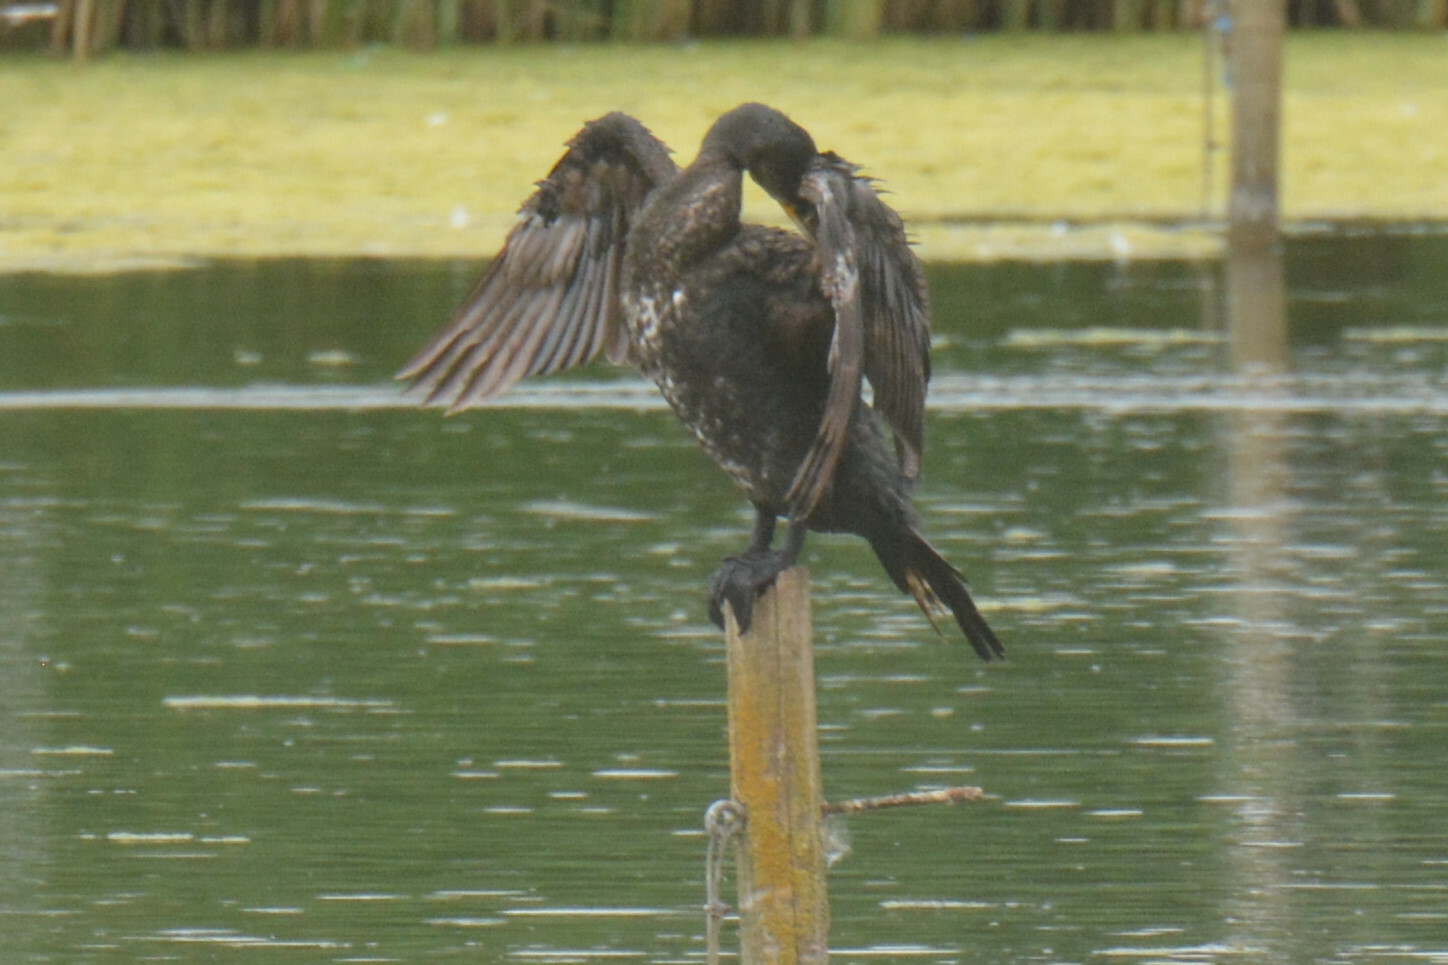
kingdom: Animalia
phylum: Chordata
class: Aves
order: Suliformes
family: Phalacrocoracidae
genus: Phalacrocorax
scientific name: Phalacrocorax carbo
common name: Great cormorant
